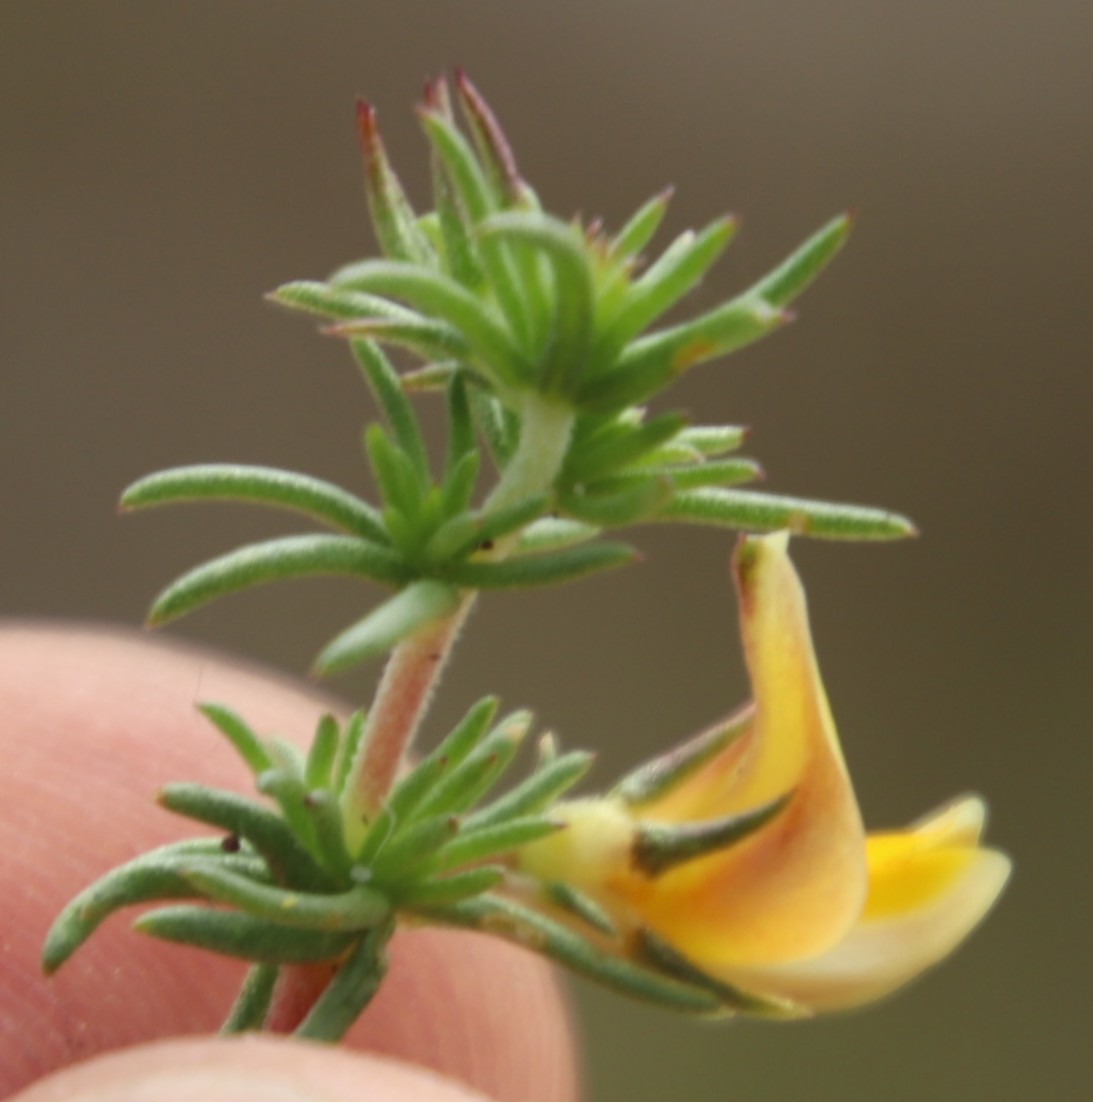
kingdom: Plantae
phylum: Tracheophyta
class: Magnoliopsida
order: Fabales
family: Fabaceae
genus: Aspalathus
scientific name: Aspalathus retroflexa
